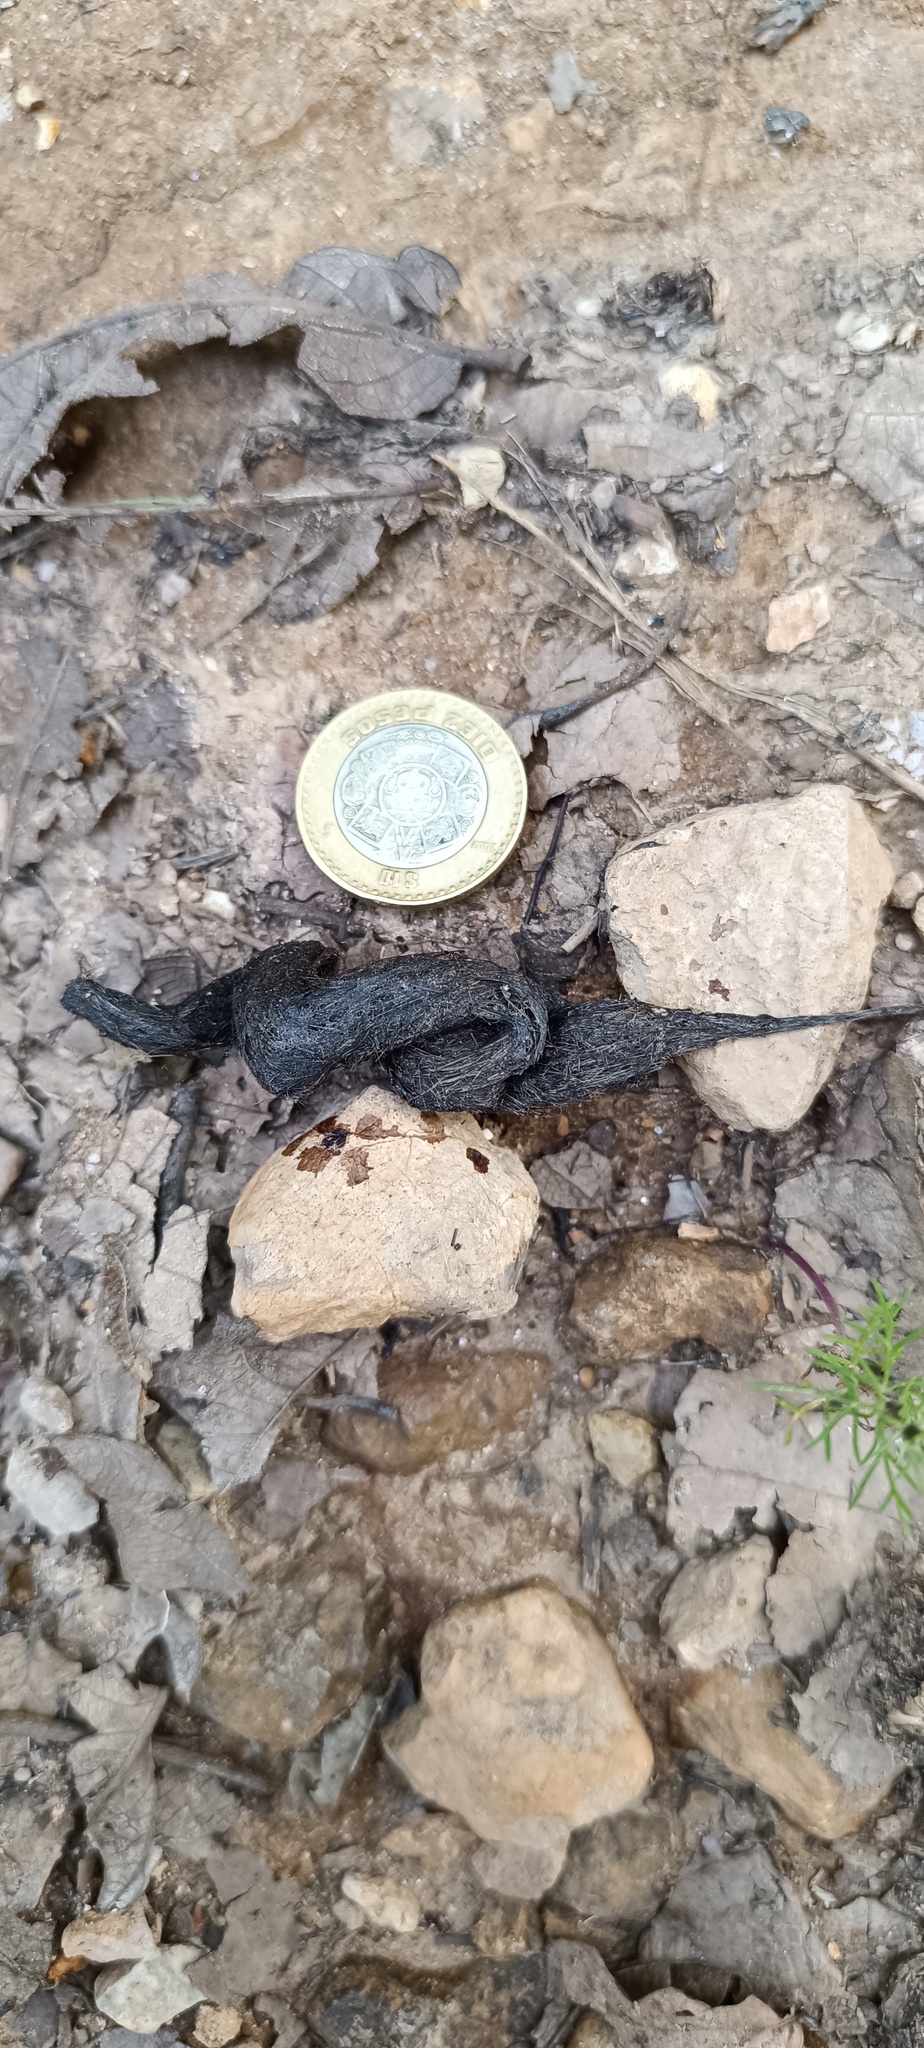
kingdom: Animalia
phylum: Chordata
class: Mammalia
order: Carnivora
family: Procyonidae
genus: Bassariscus
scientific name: Bassariscus astutus
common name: Ringtail
